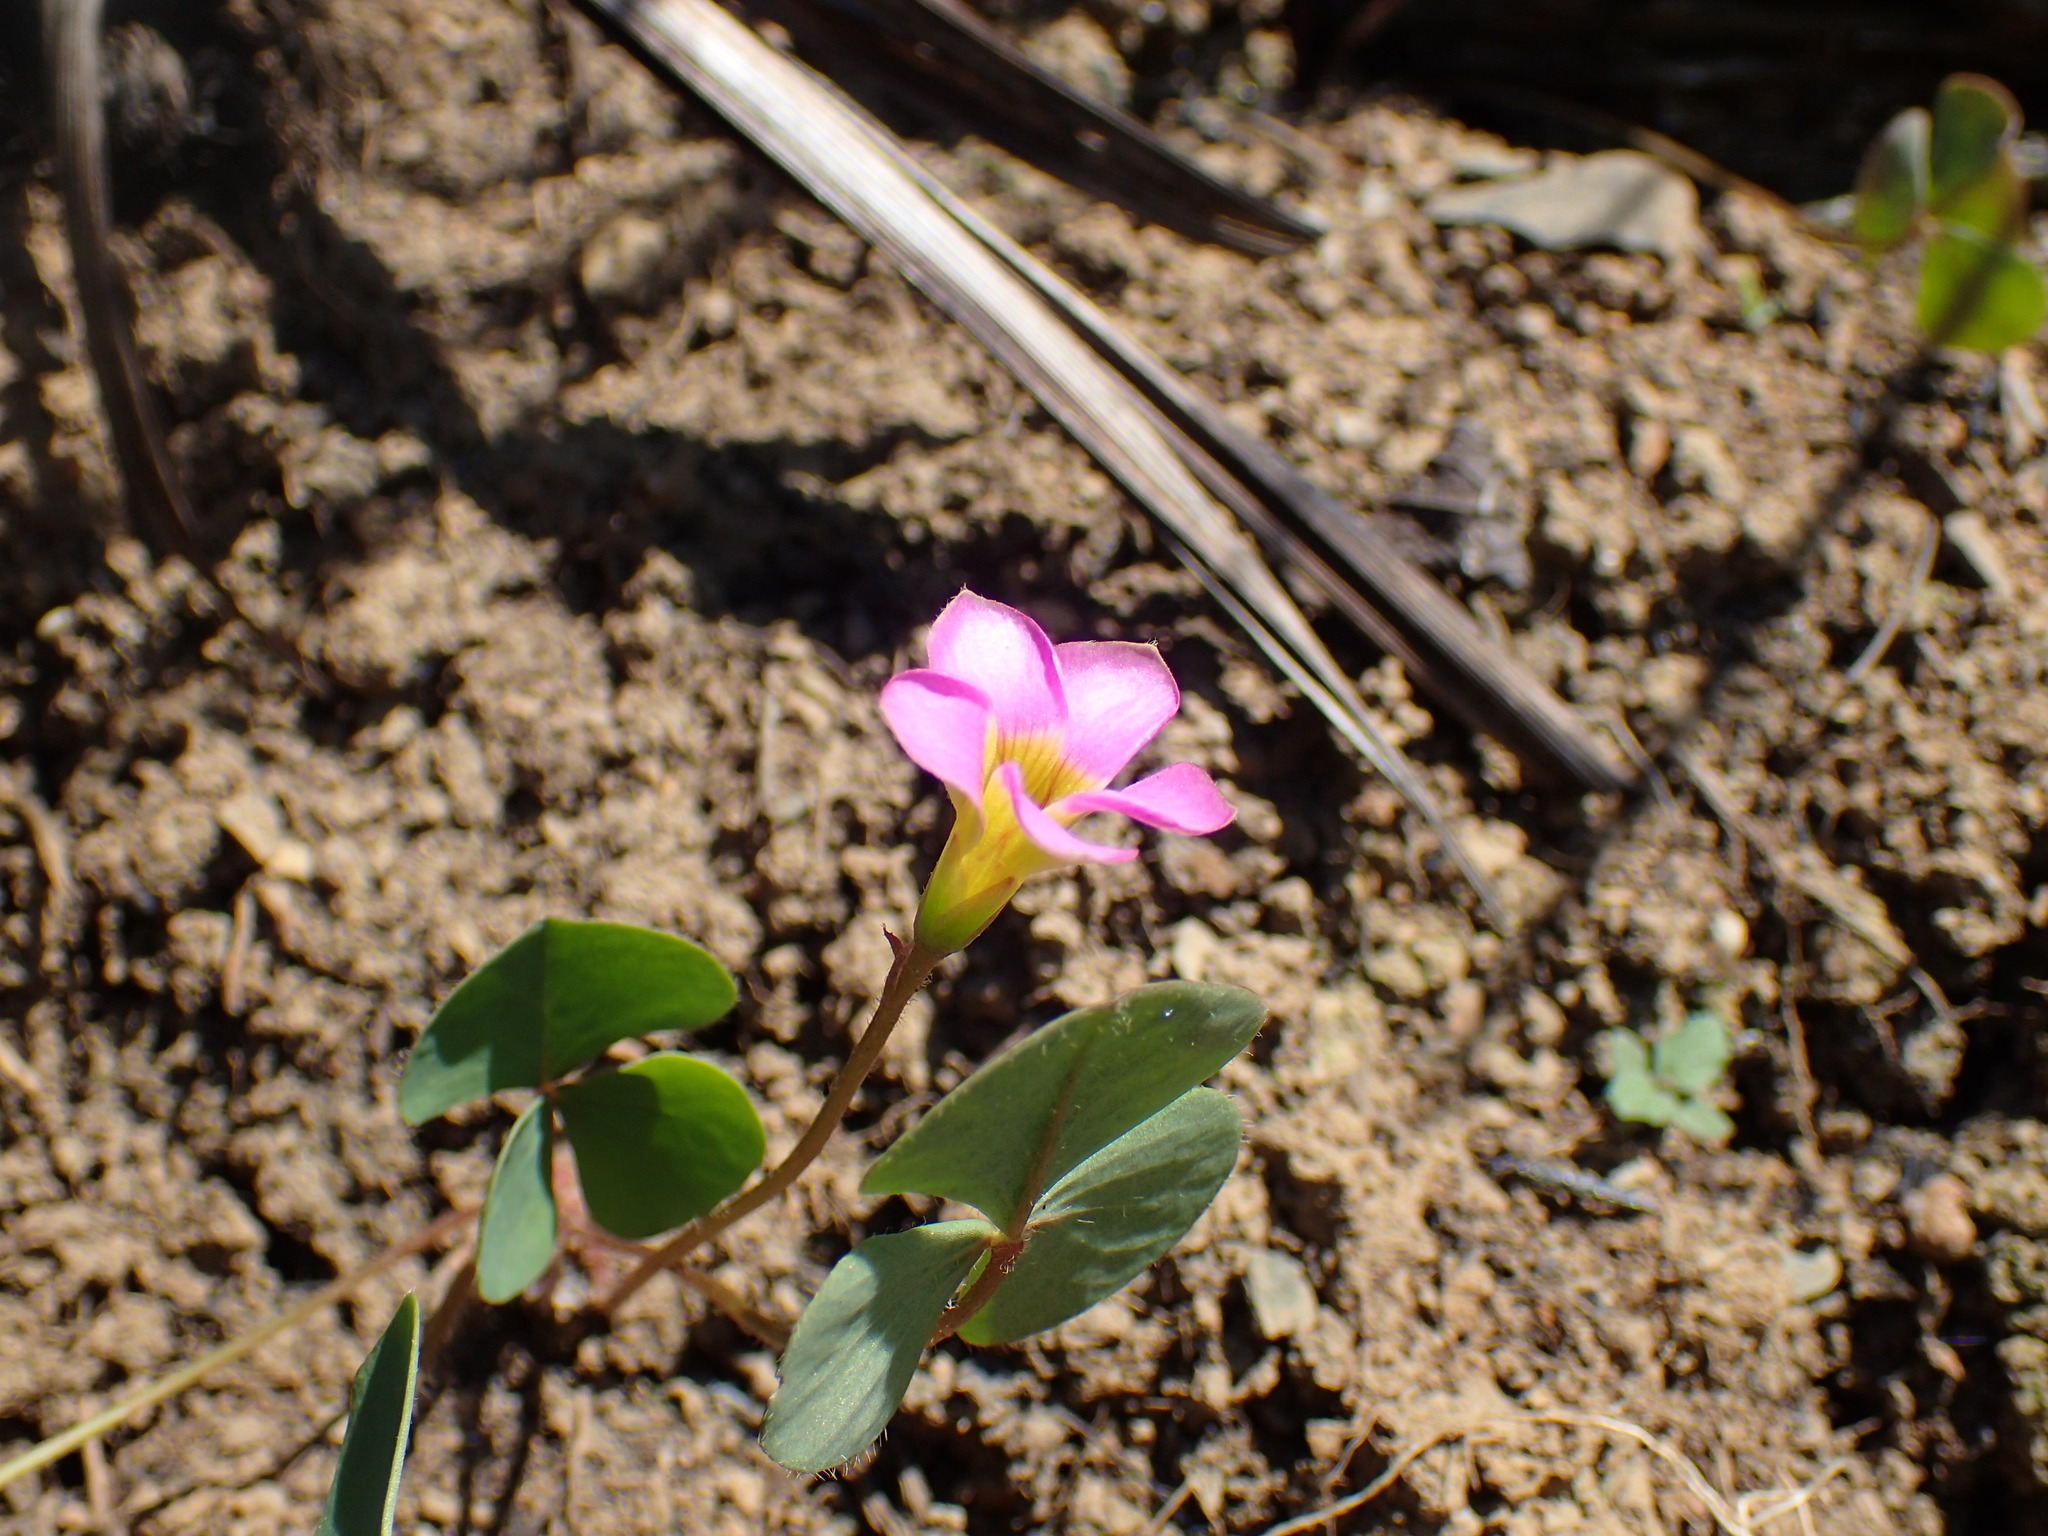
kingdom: Plantae
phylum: Tracheophyta
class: Magnoliopsida
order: Oxalidales
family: Oxalidaceae
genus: Oxalis
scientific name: Oxalis obliquifolia
